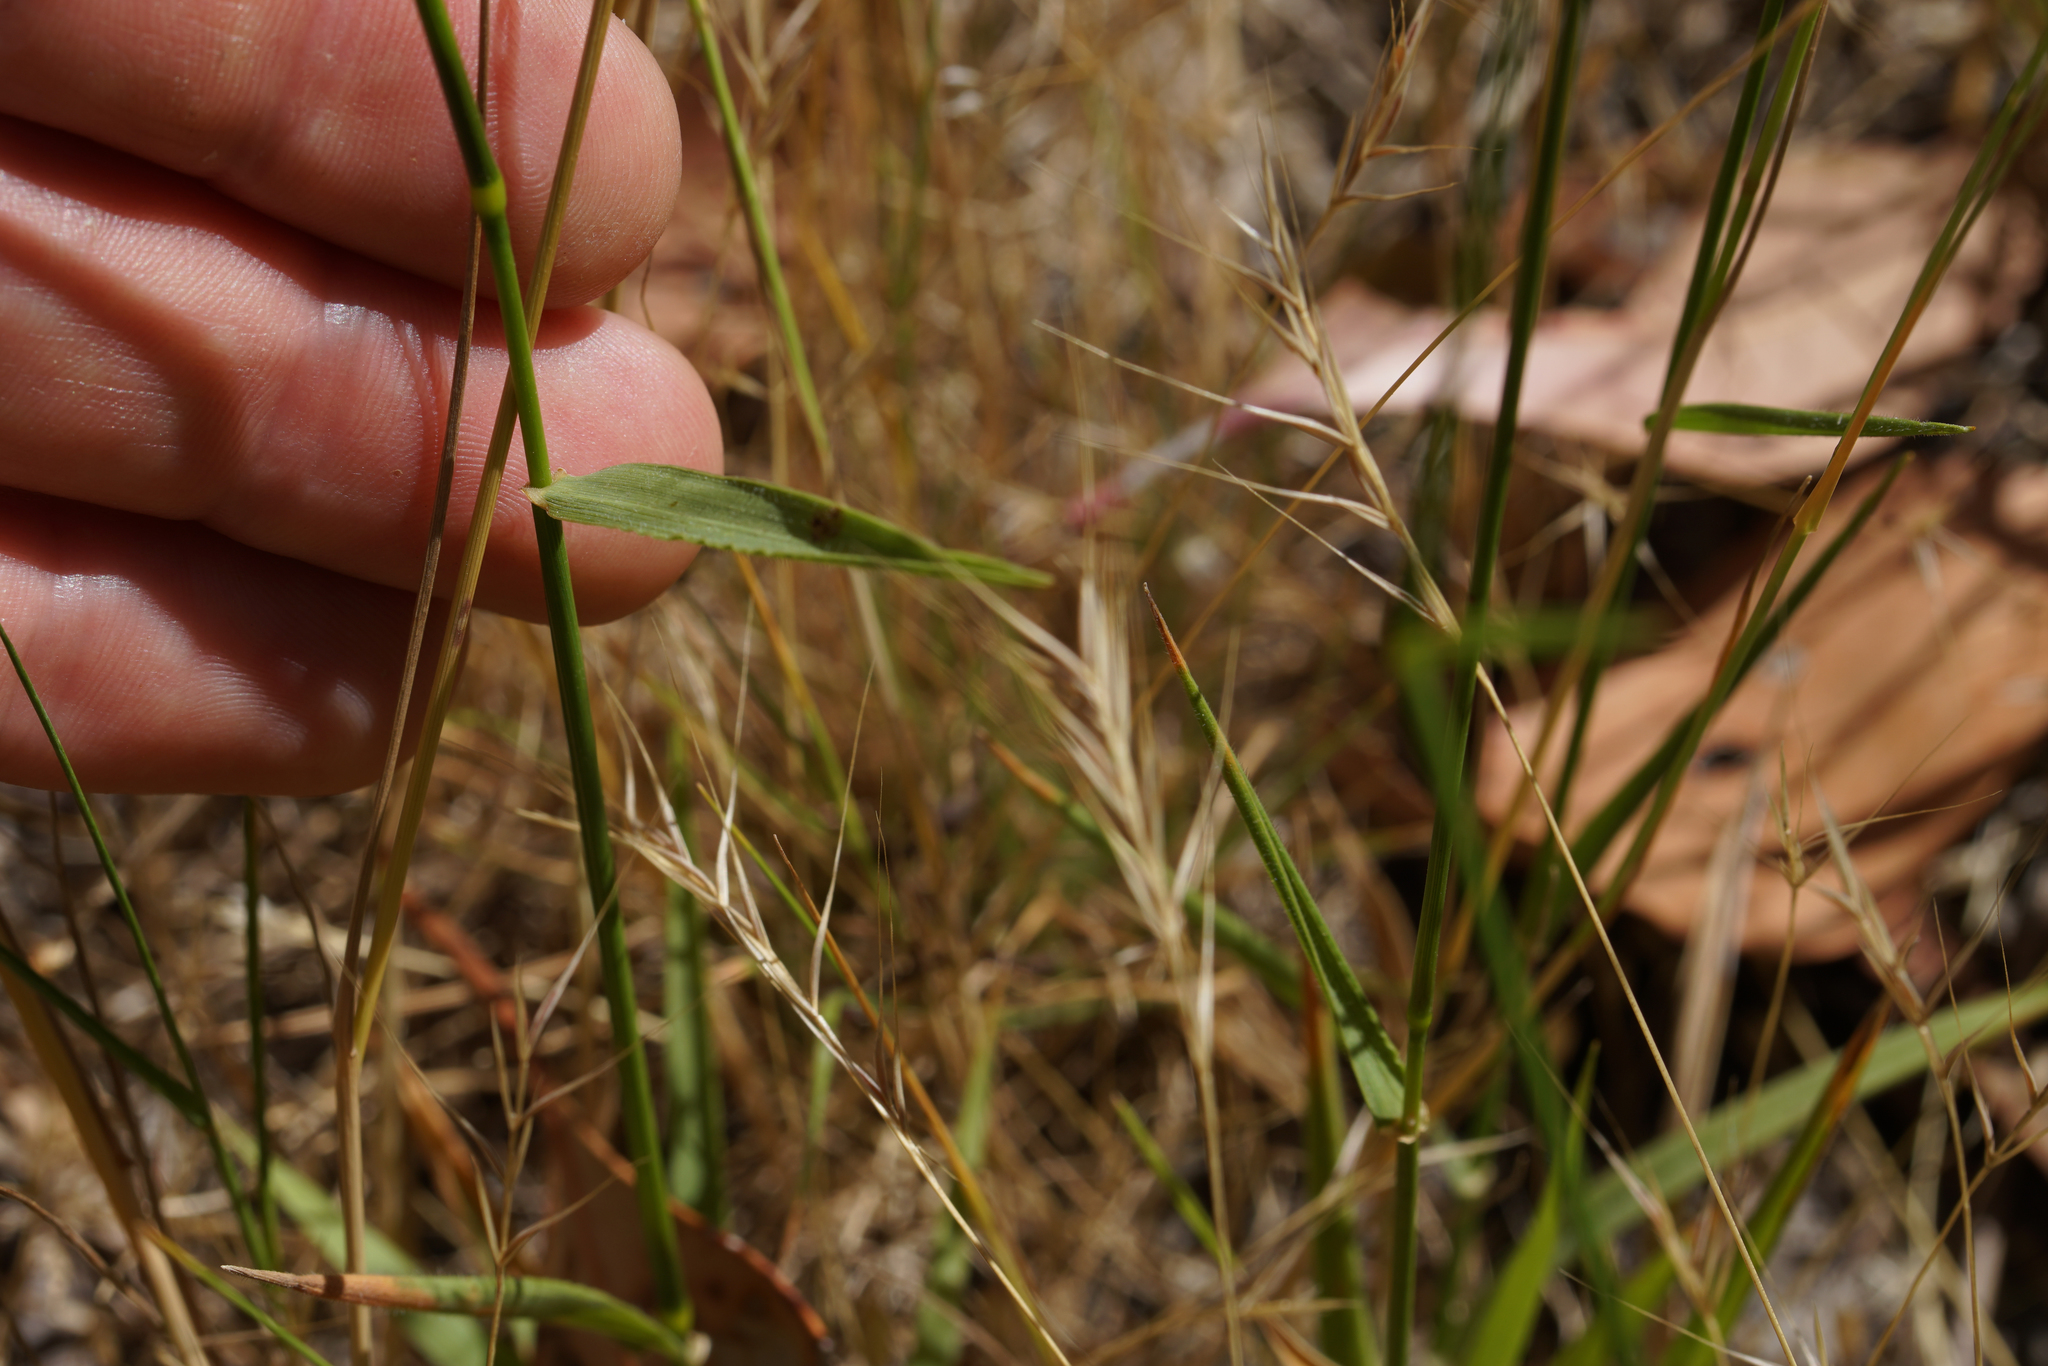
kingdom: Plantae
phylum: Tracheophyta
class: Liliopsida
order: Poales
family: Poaceae
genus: Microlaena
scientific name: Microlaena stipoides
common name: Meadow ricegrass
